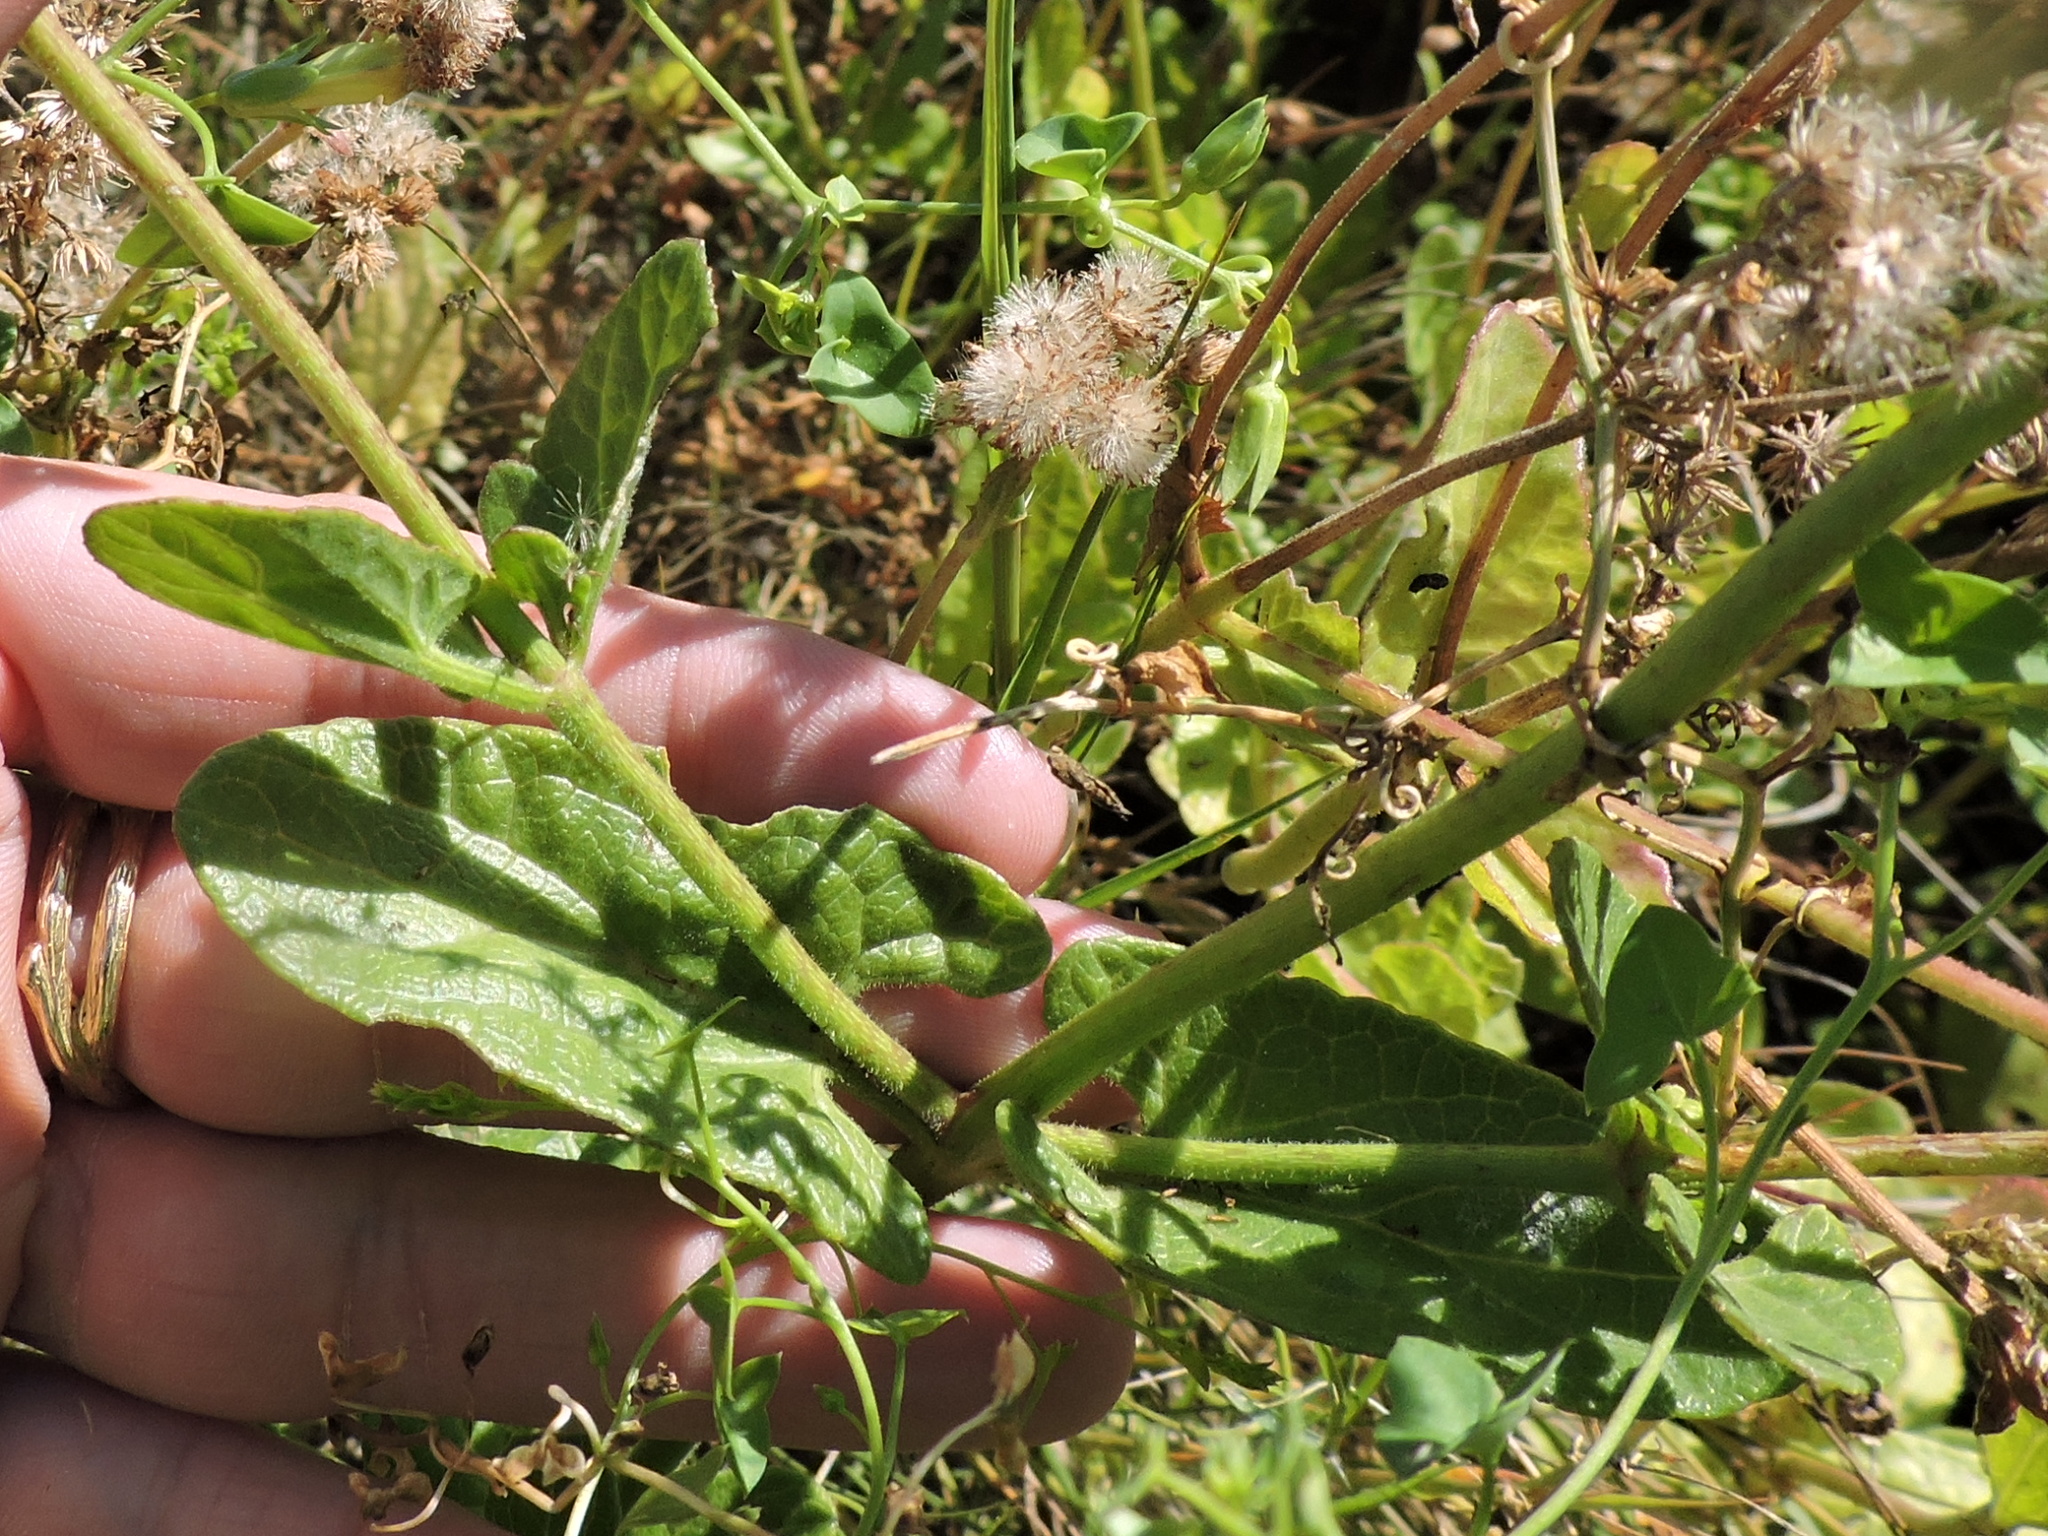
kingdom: Plantae
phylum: Tracheophyta
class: Magnoliopsida
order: Asterales
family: Asteraceae
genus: Conoclinium
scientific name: Conoclinium betonicifolium
